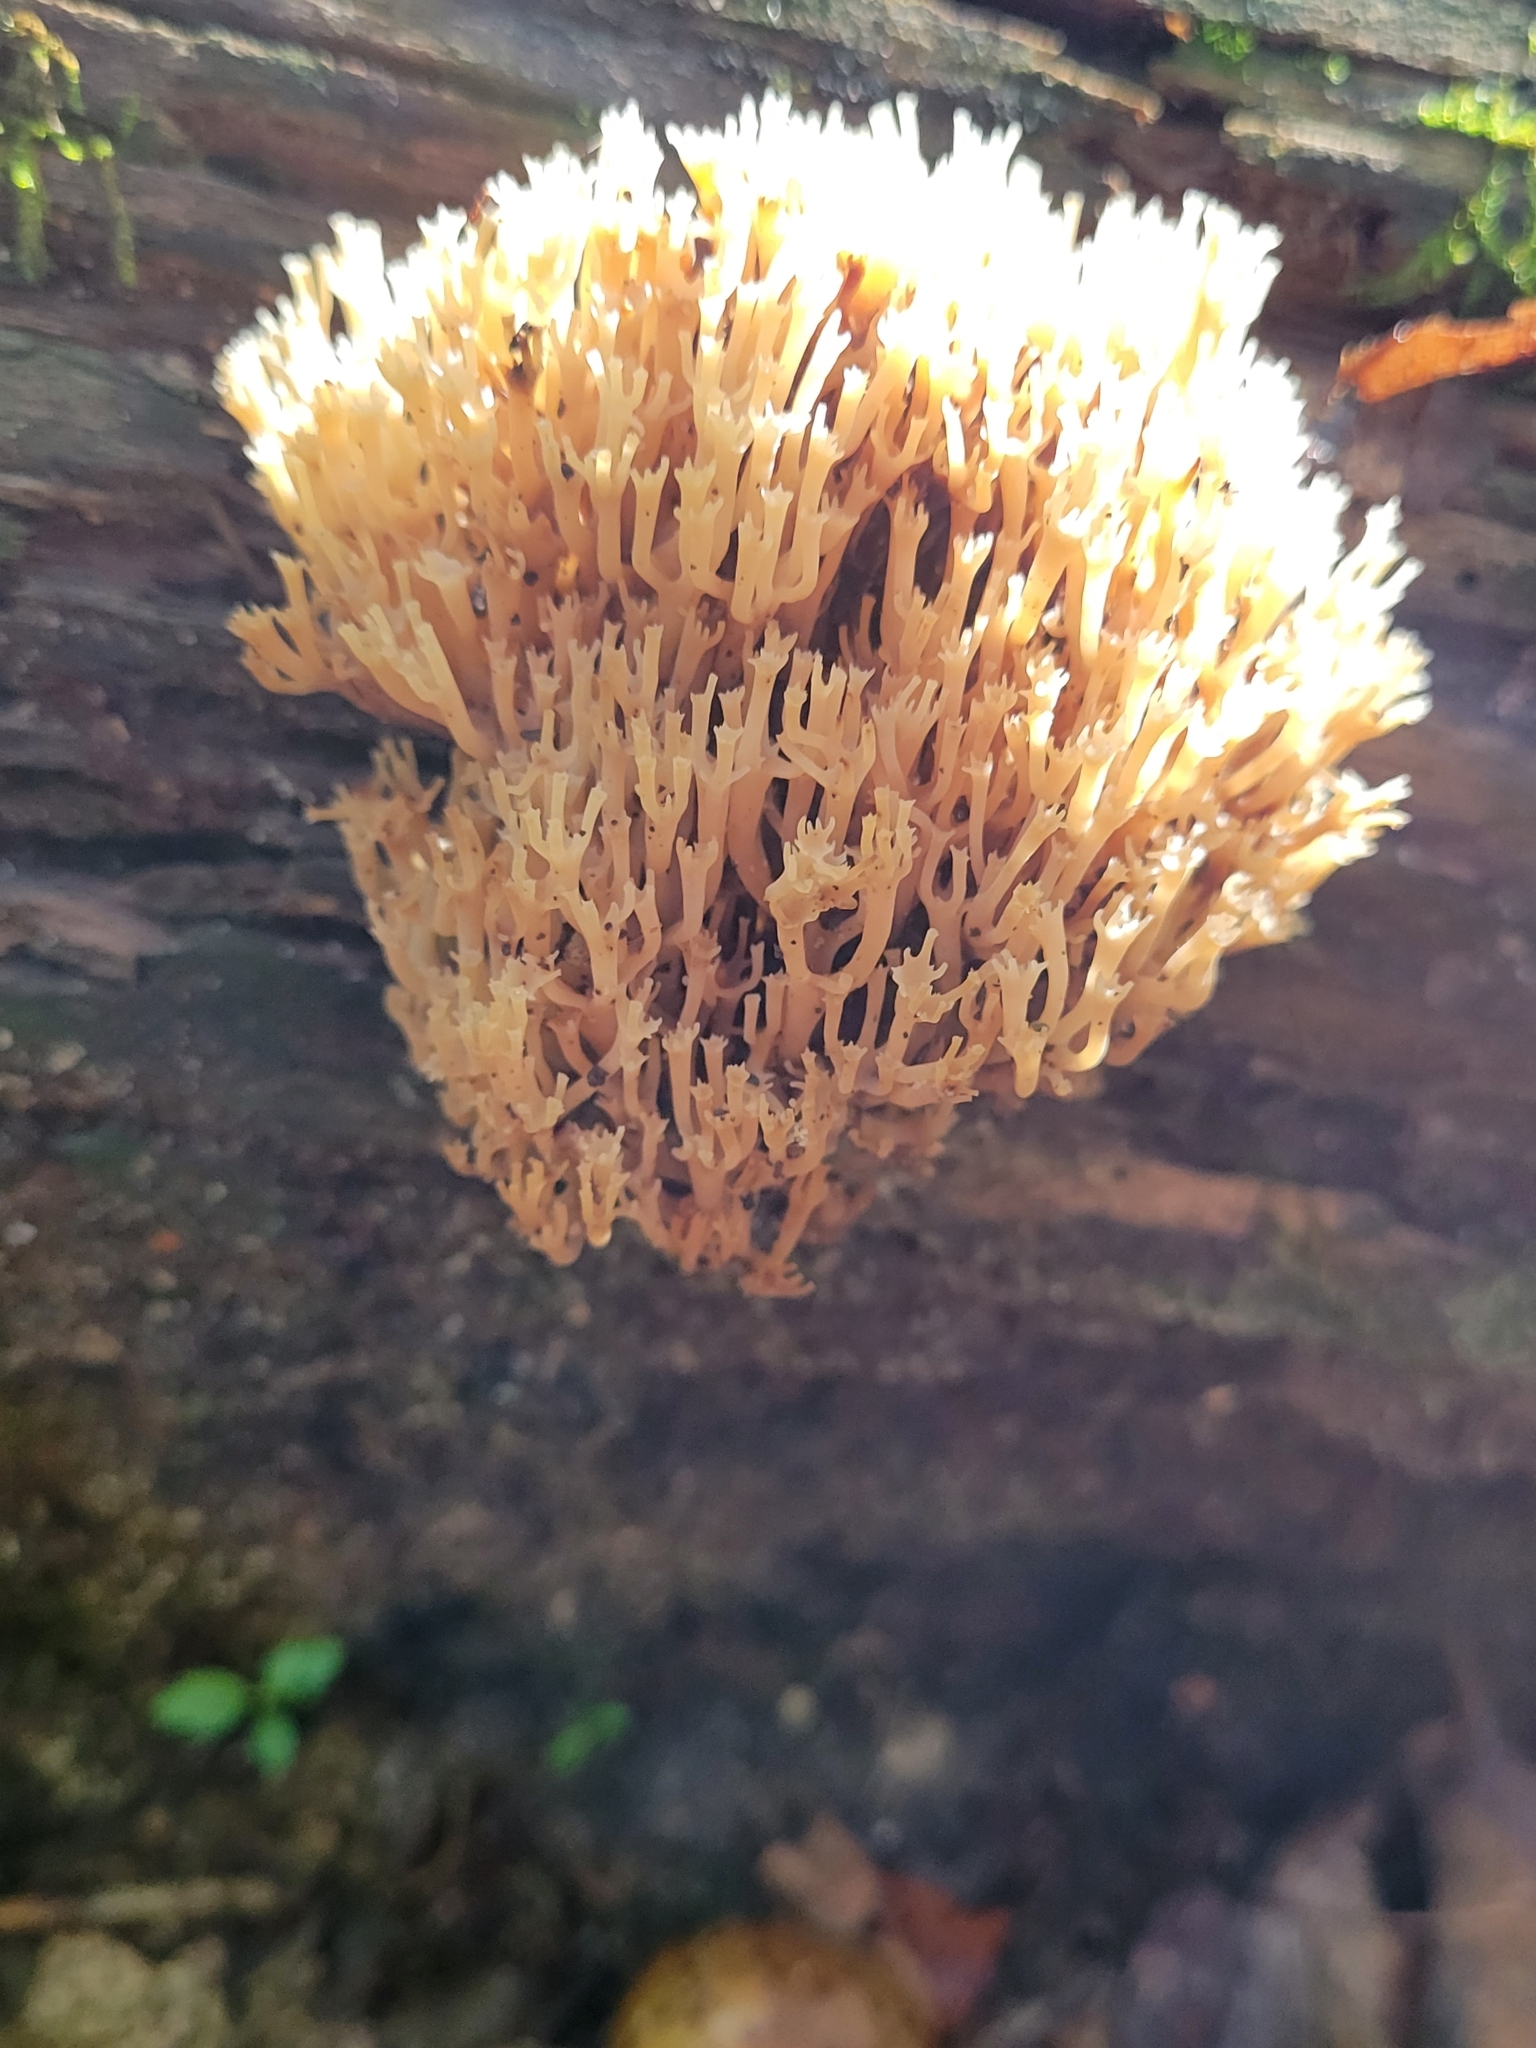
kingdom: Fungi
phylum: Basidiomycota
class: Agaricomycetes
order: Russulales
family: Auriscalpiaceae
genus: Artomyces
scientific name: Artomyces pyxidatus
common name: Crown-tipped coral fungus
